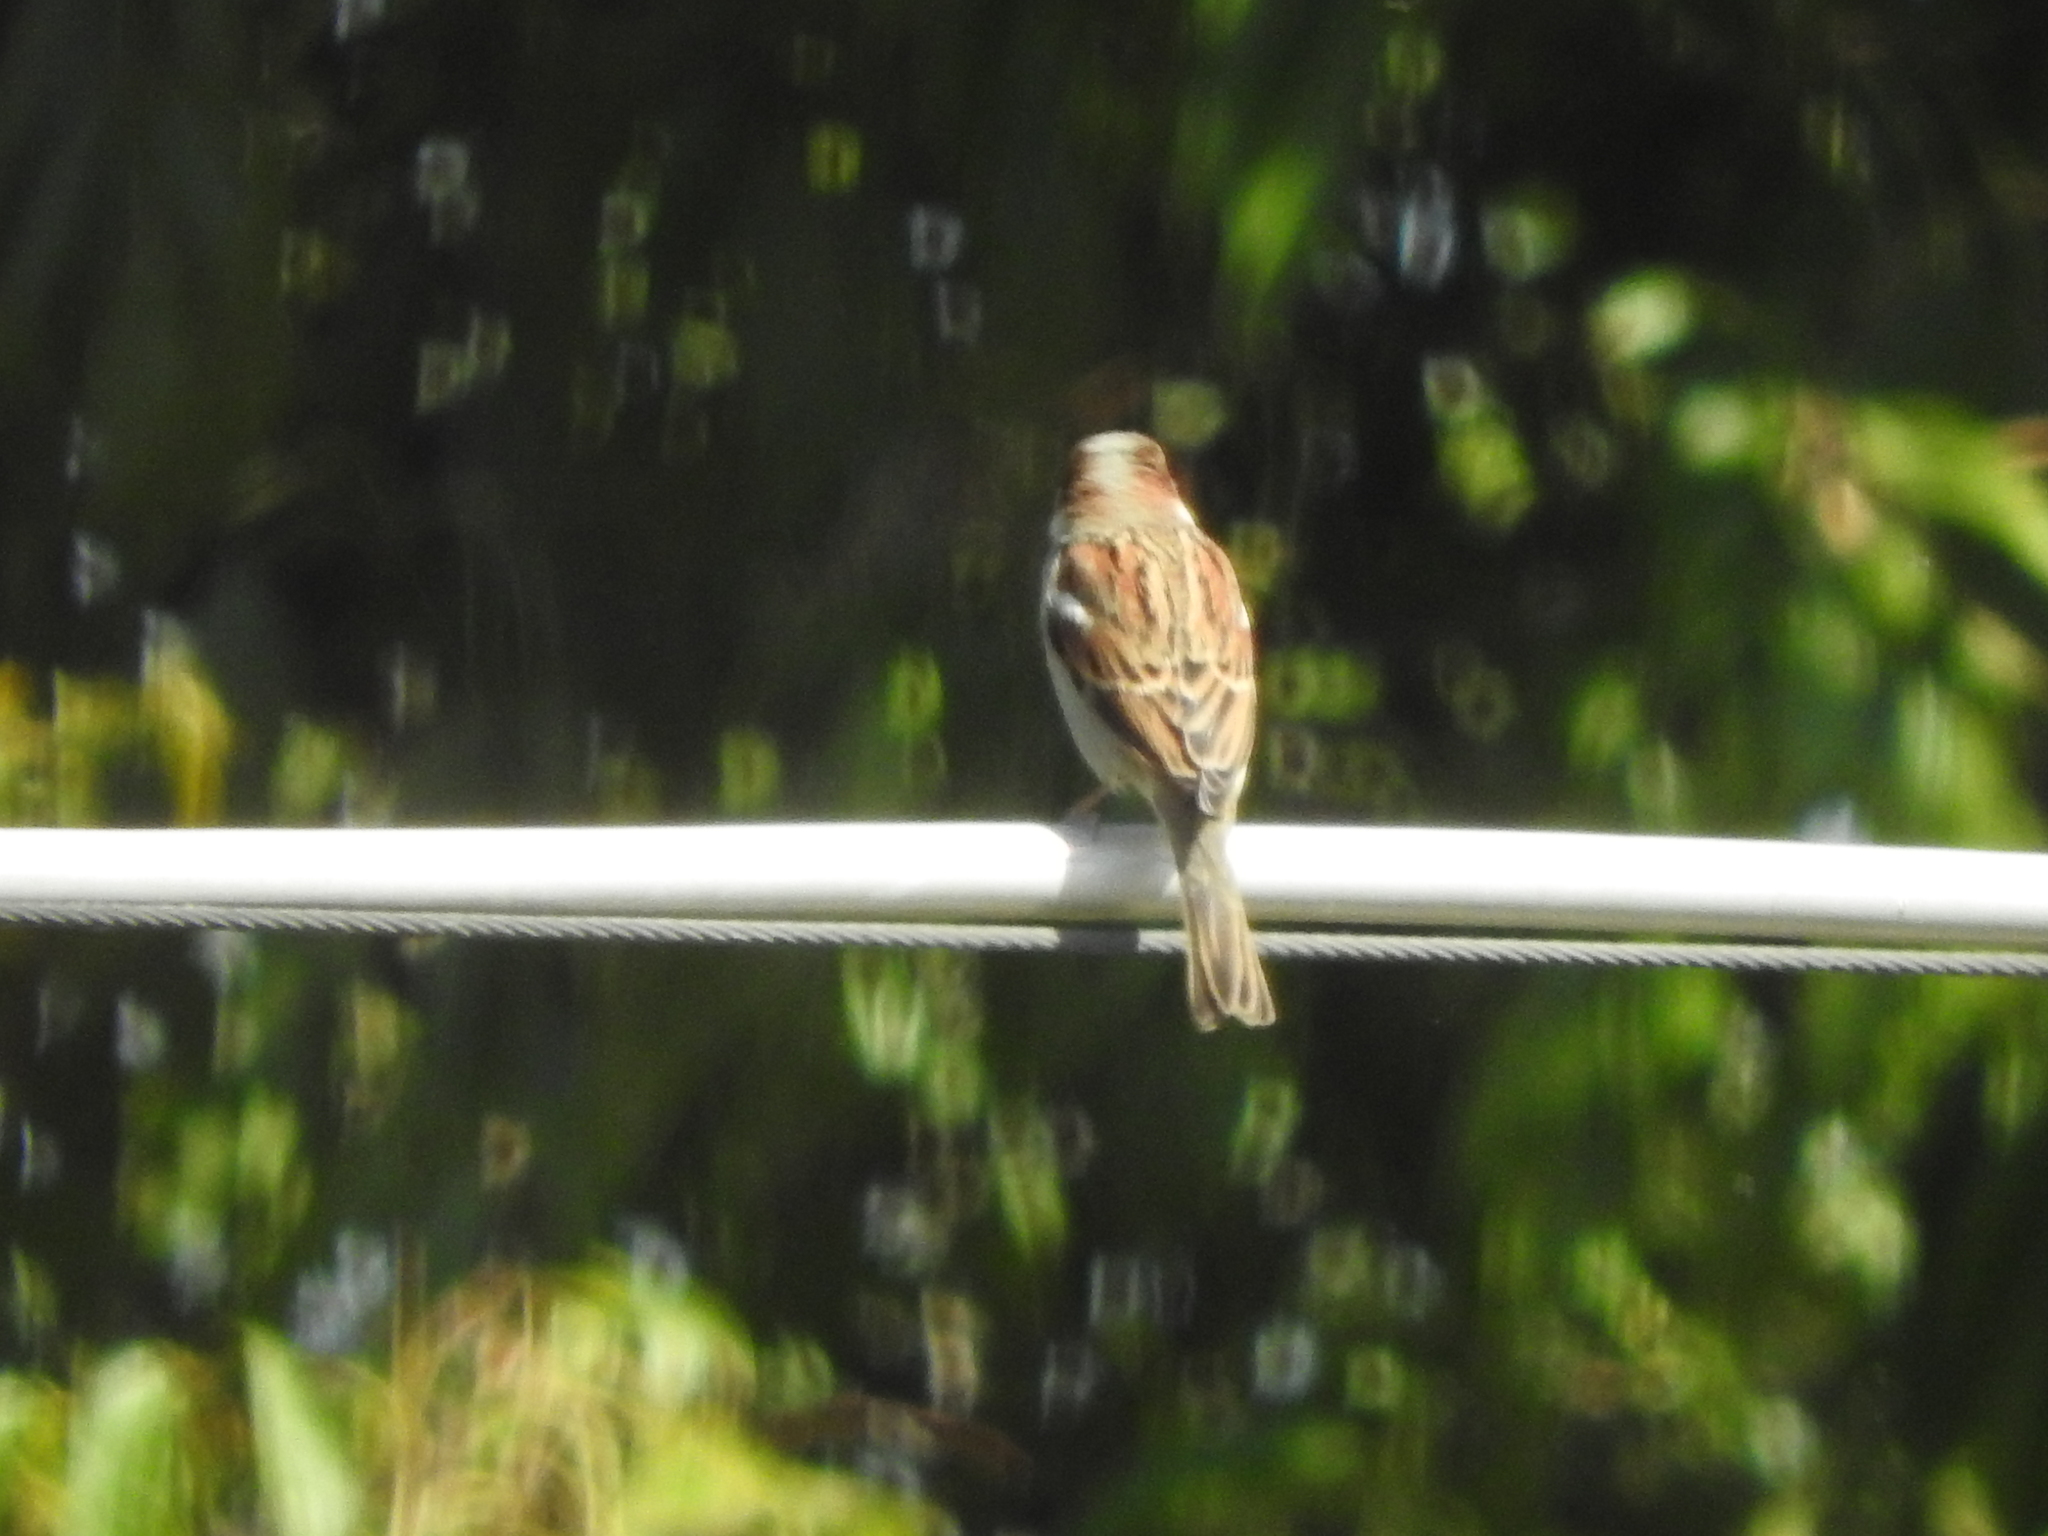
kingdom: Animalia
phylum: Chordata
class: Aves
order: Passeriformes
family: Passeridae
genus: Passer
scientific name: Passer domesticus
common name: House sparrow
